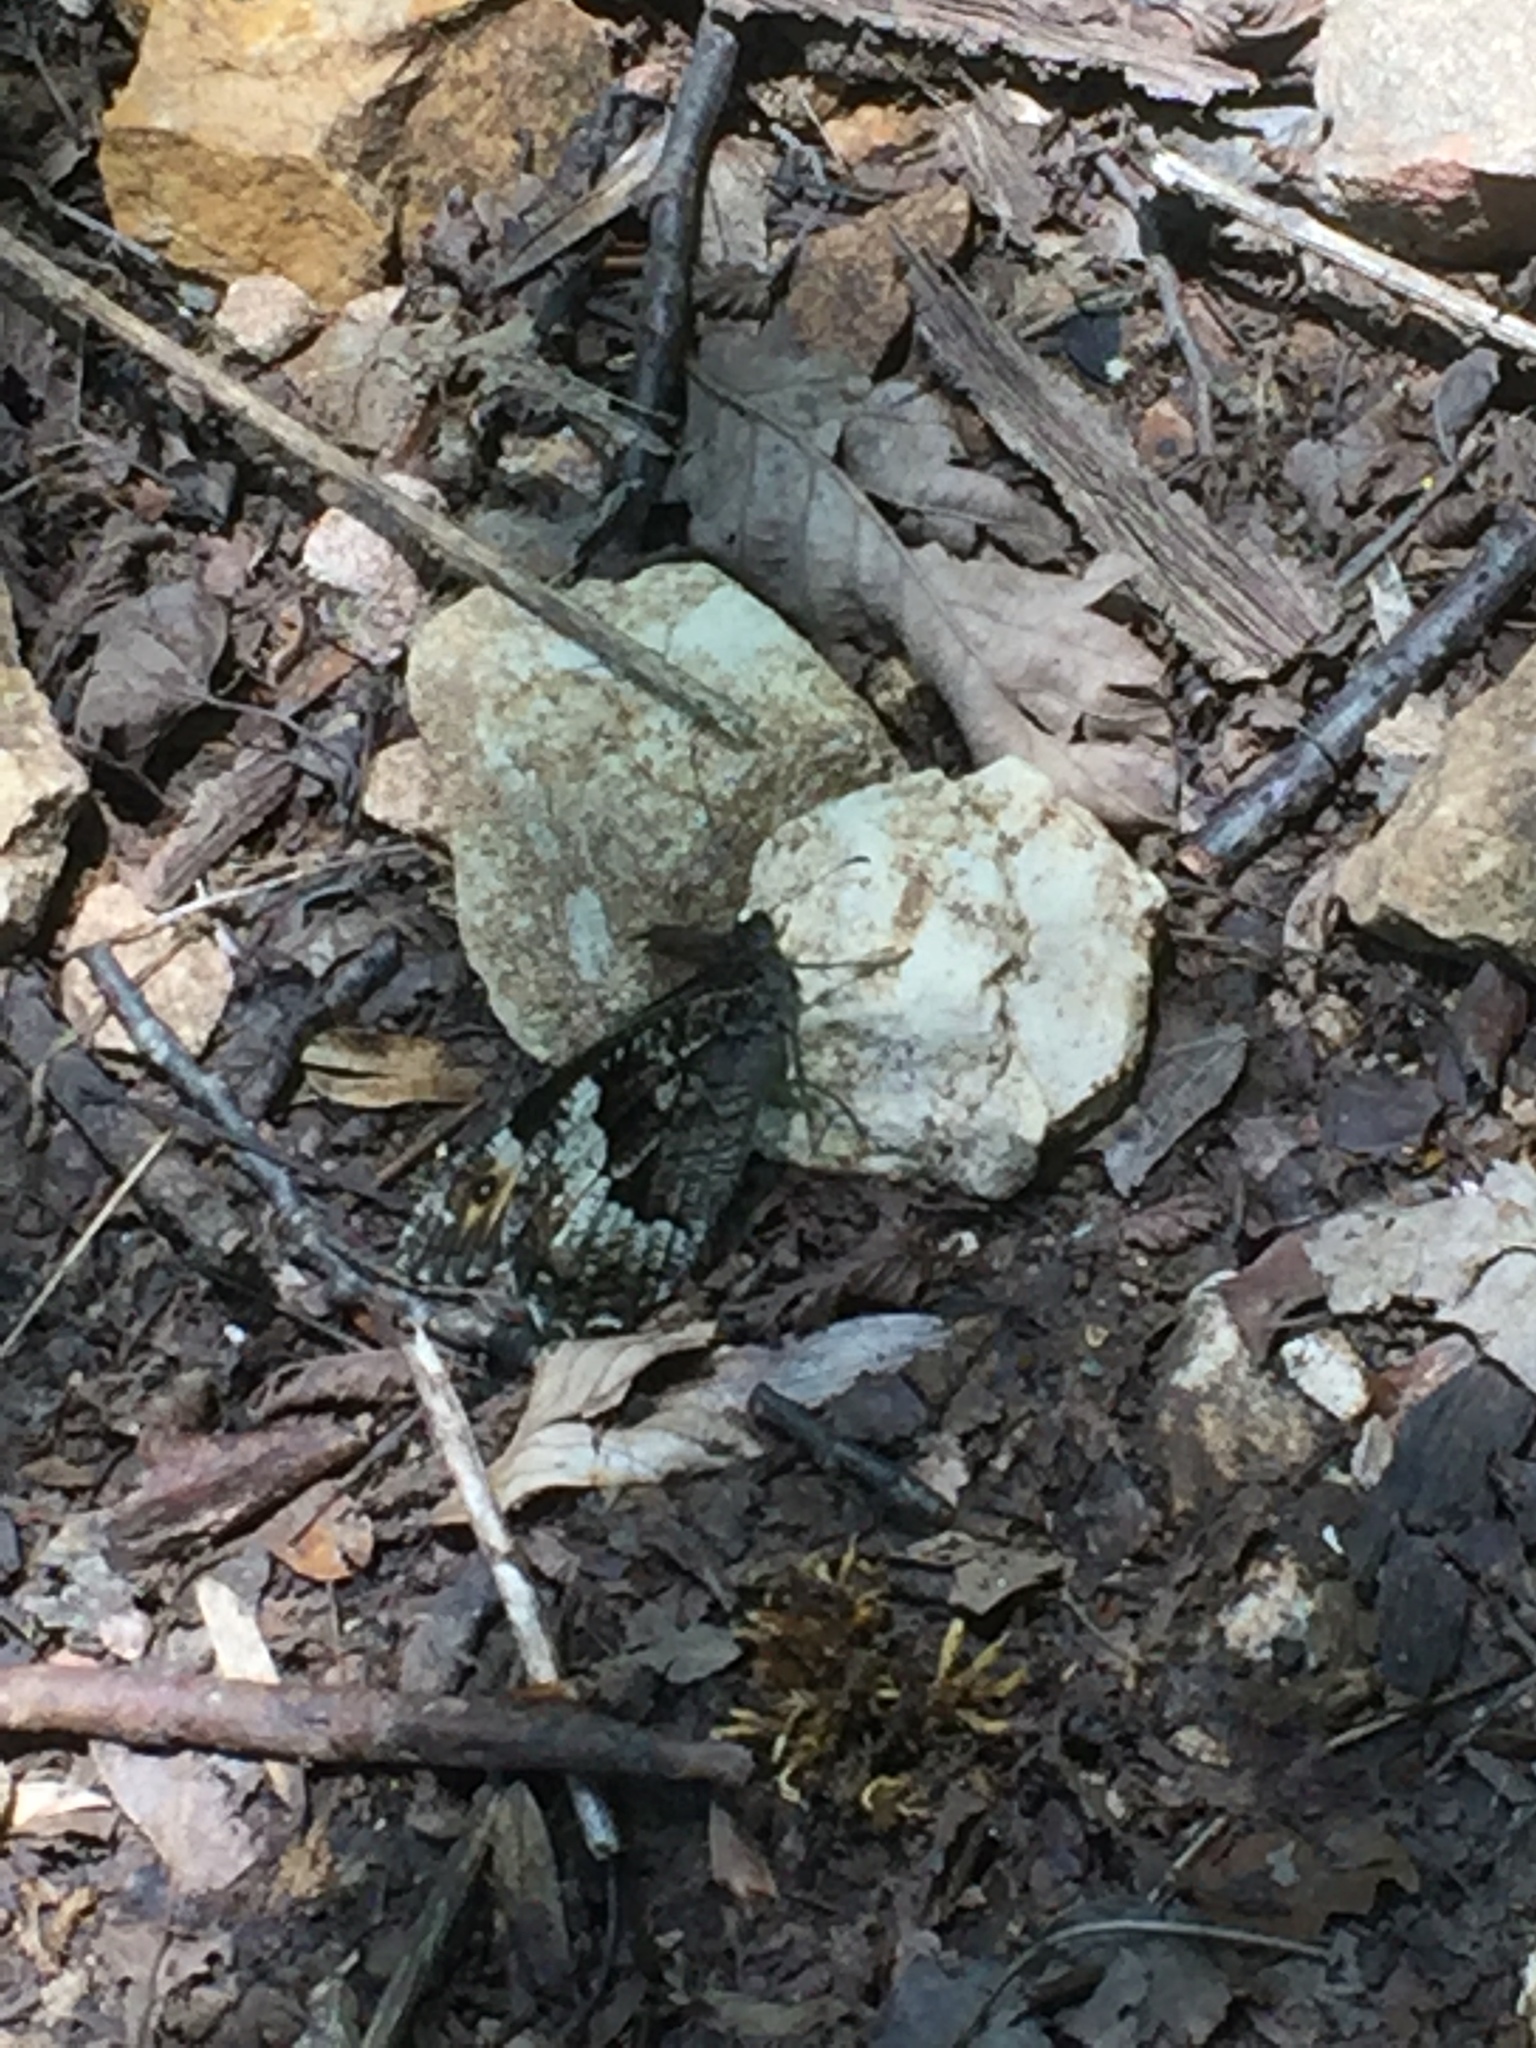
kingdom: Animalia
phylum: Arthropoda
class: Insecta
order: Lepidoptera
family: Nymphalidae
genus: Hipparchia
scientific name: Hipparchia syriaca
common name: Eastern rock grayling
